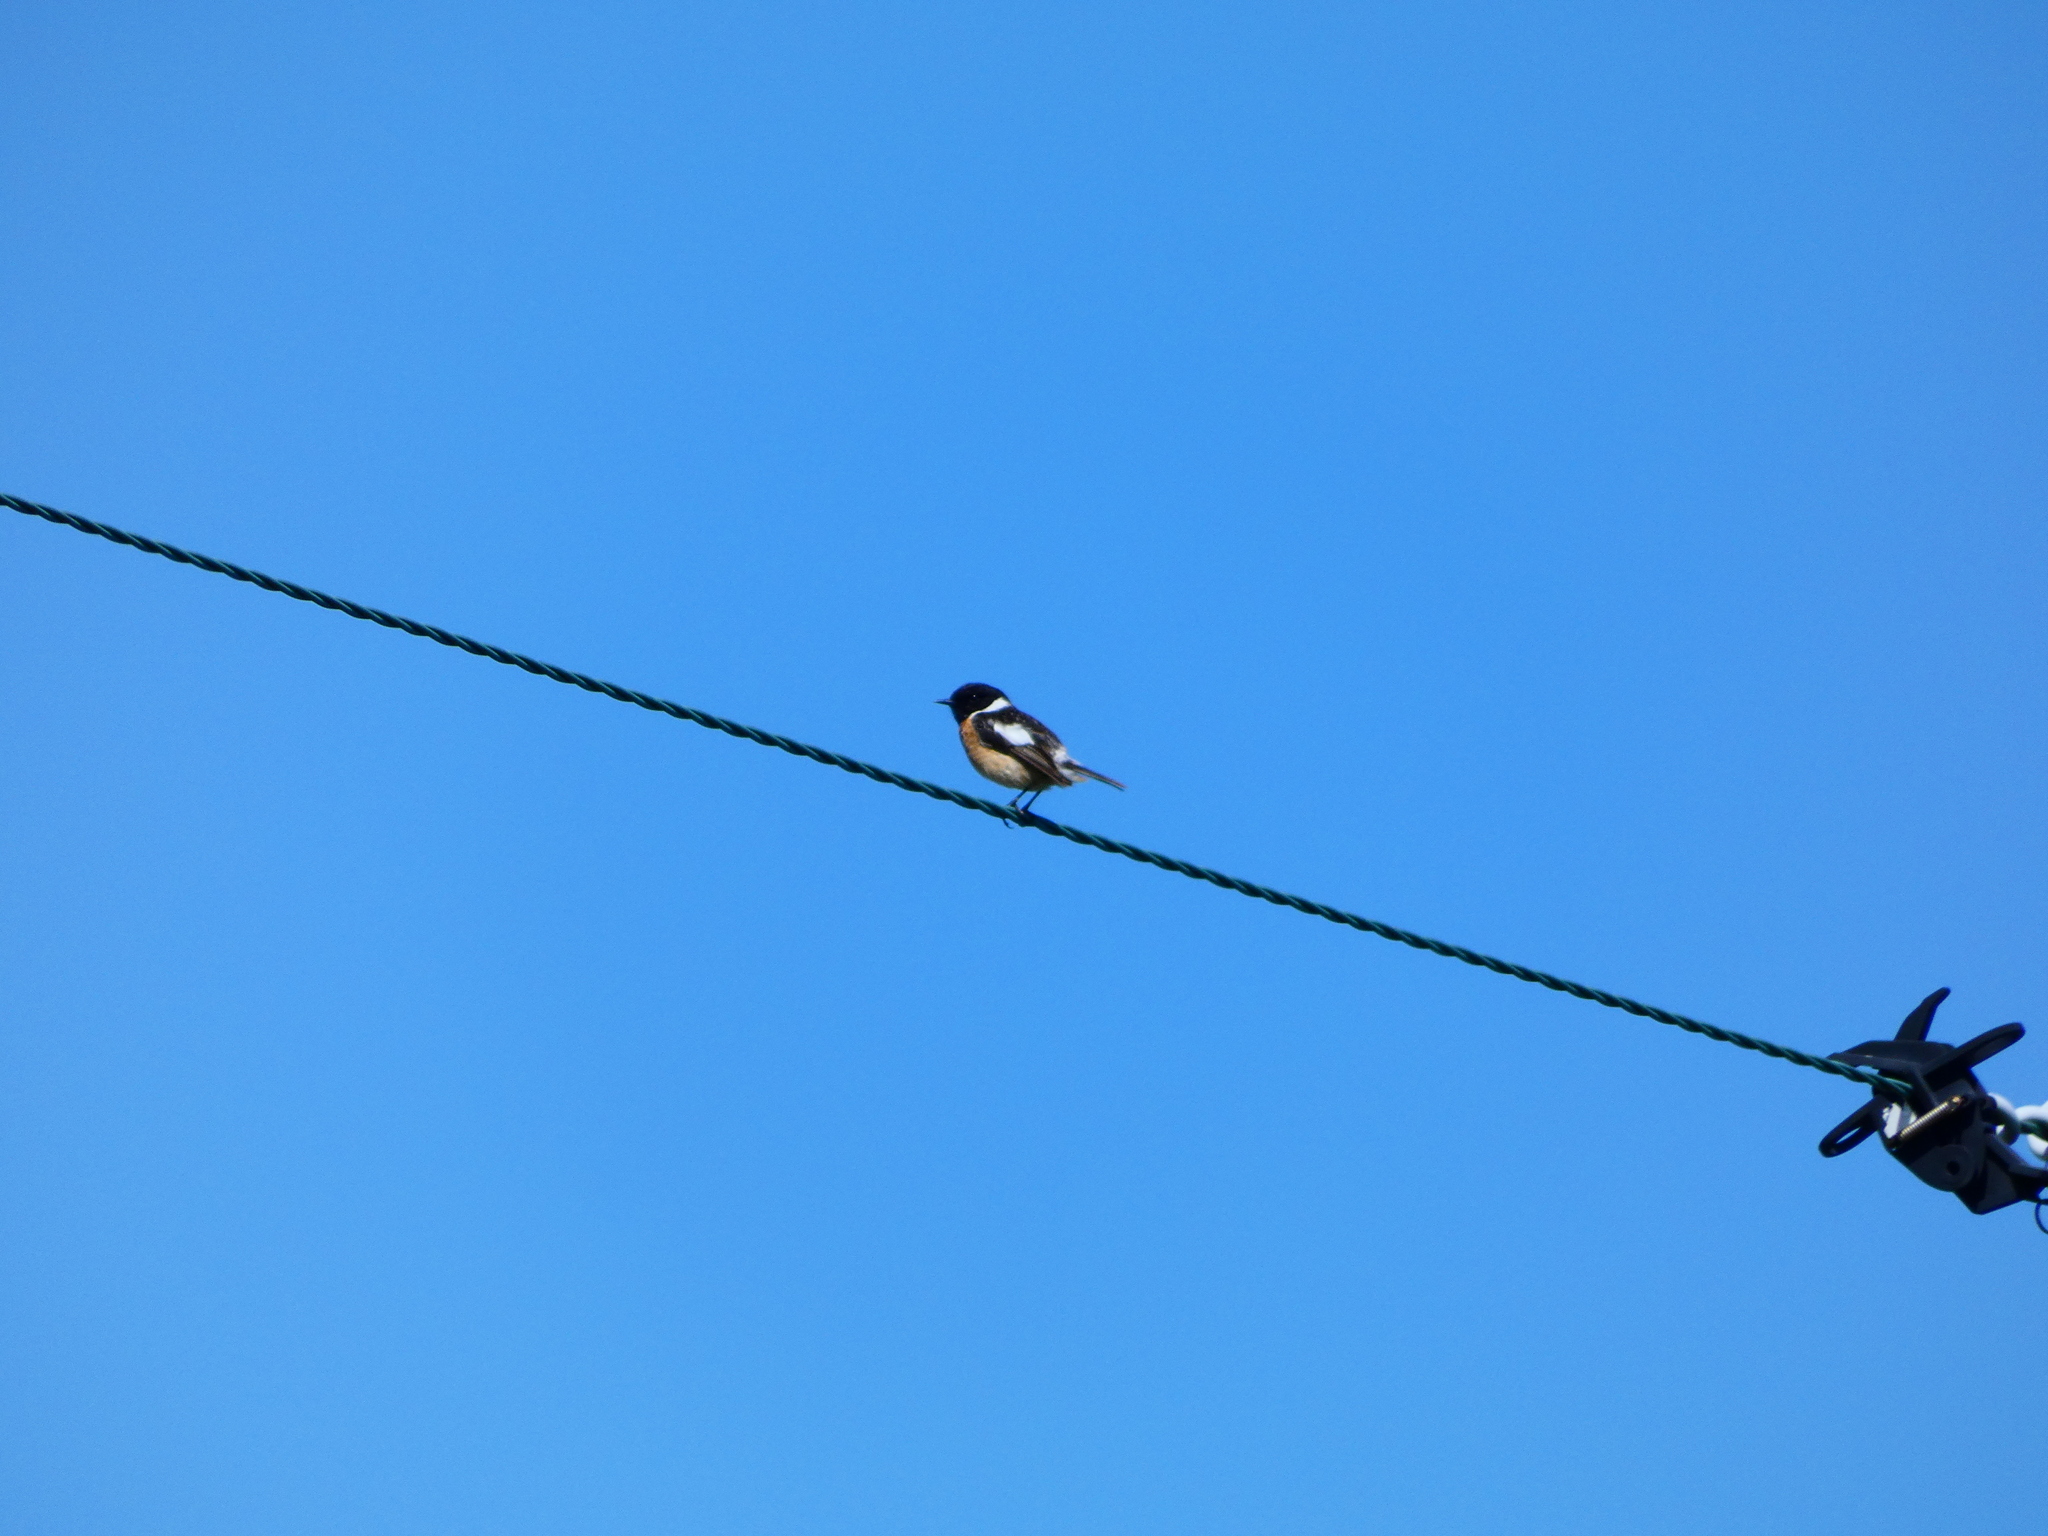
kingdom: Animalia
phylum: Chordata
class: Aves
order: Passeriformes
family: Muscicapidae
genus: Saxicola
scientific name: Saxicola rubicola
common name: European stonechat
